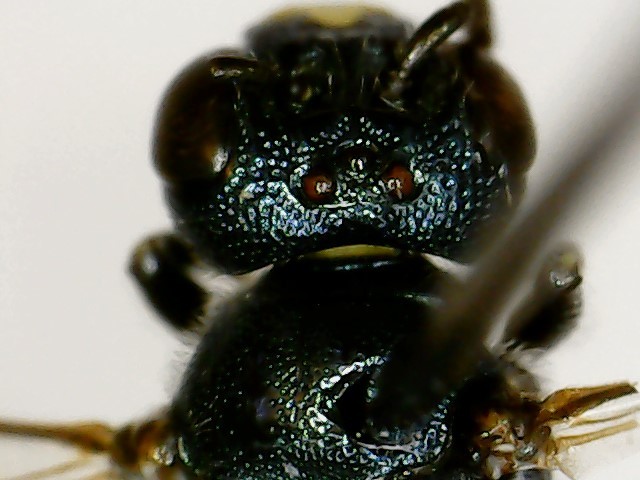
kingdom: Animalia
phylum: Arthropoda
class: Insecta
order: Hymenoptera
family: Apidae
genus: Ceratina
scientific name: Ceratina calcarata
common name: Spurred carpenter bee
